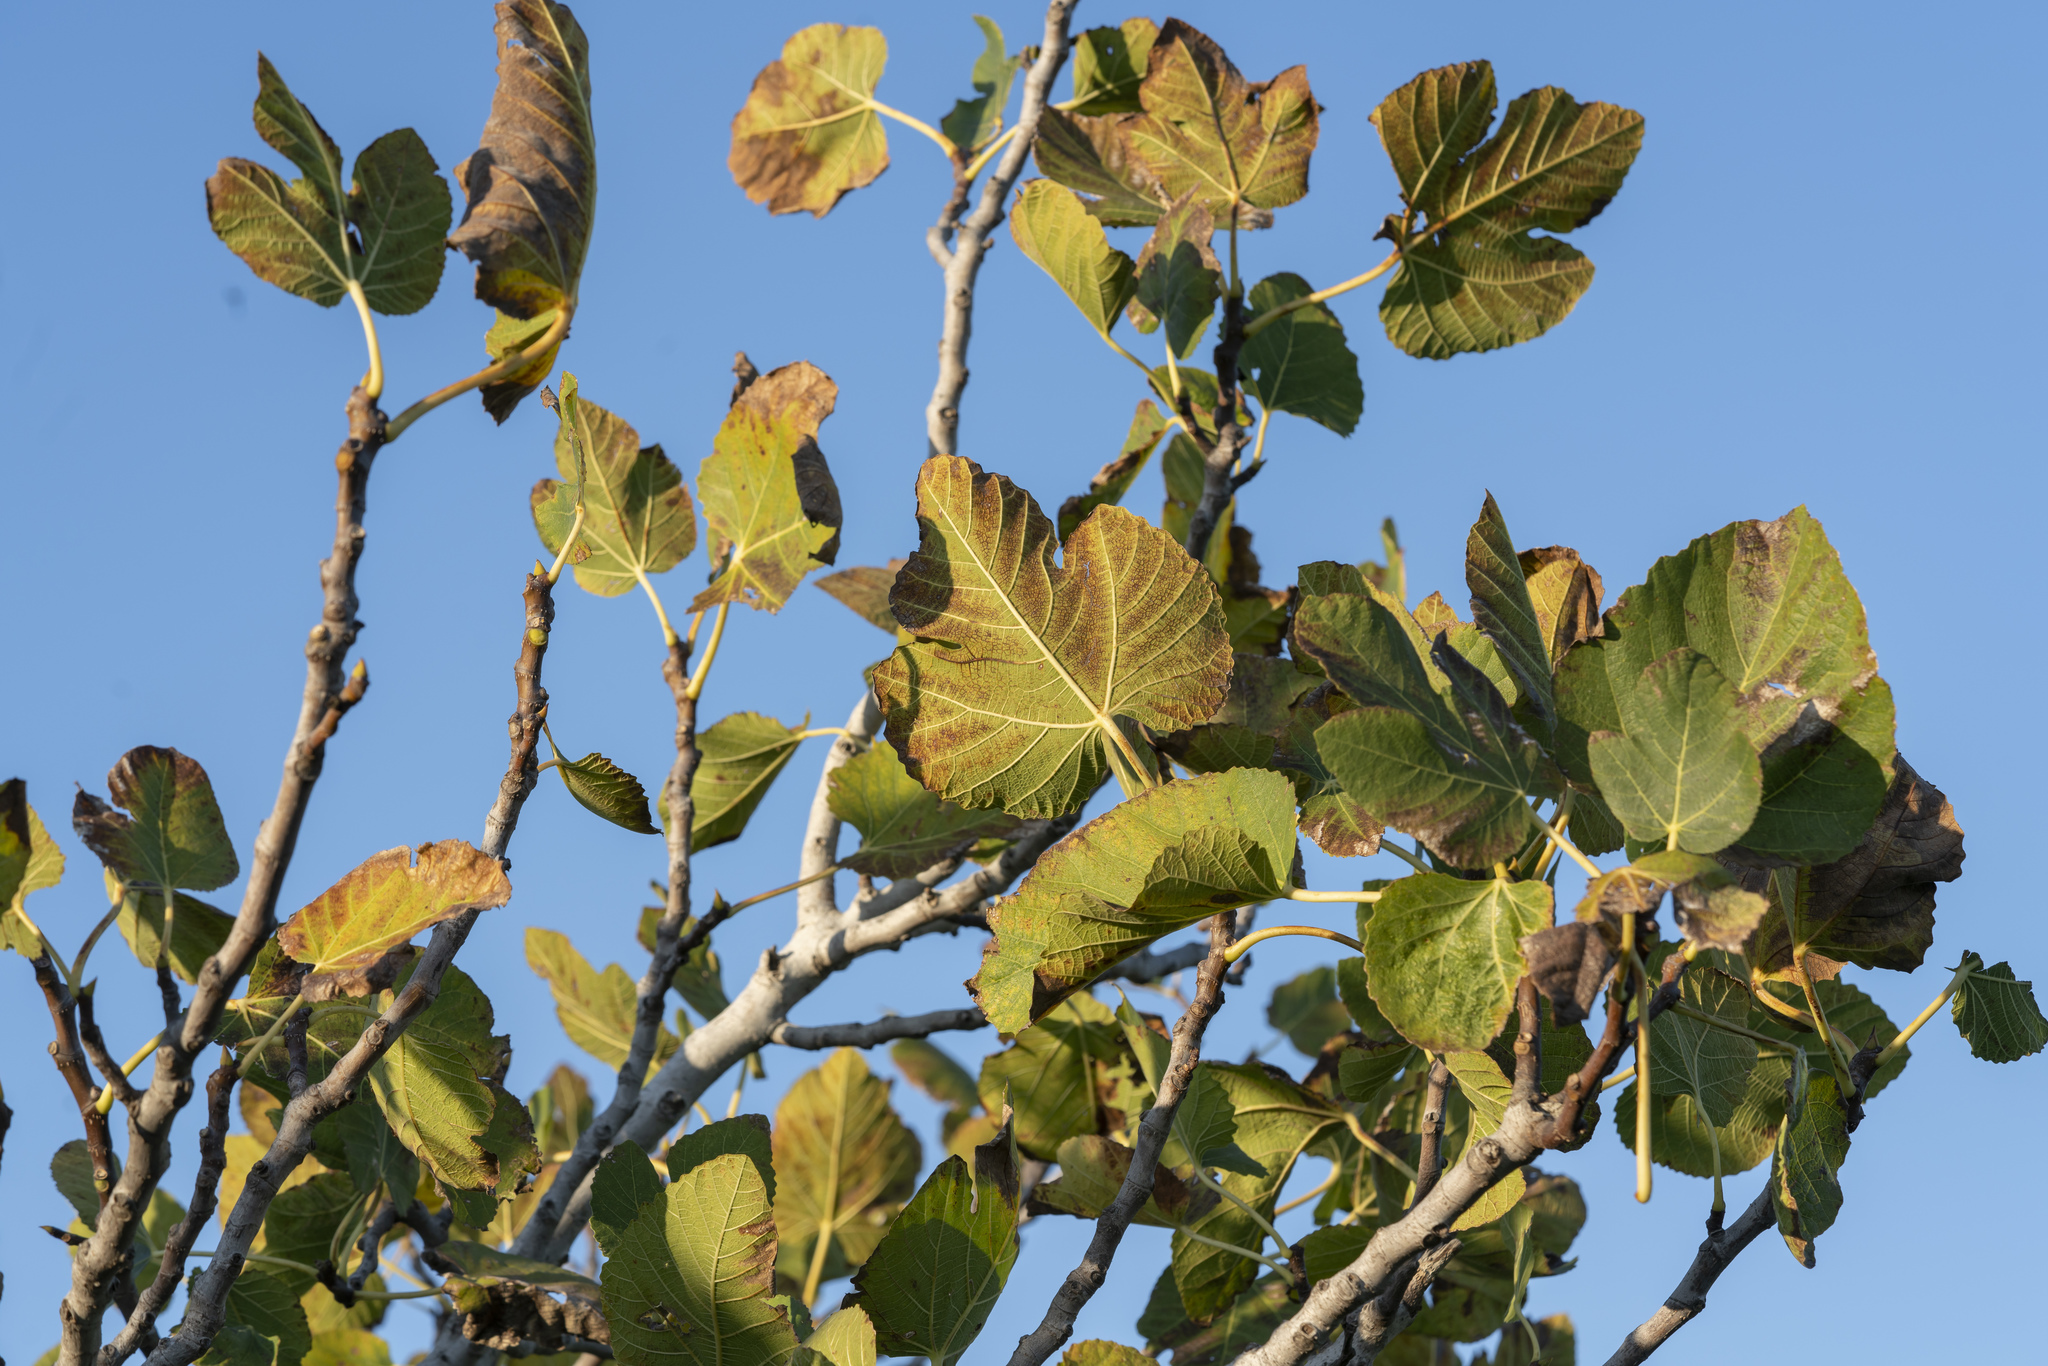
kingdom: Plantae
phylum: Tracheophyta
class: Magnoliopsida
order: Rosales
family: Moraceae
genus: Ficus
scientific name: Ficus carica
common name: Fig
